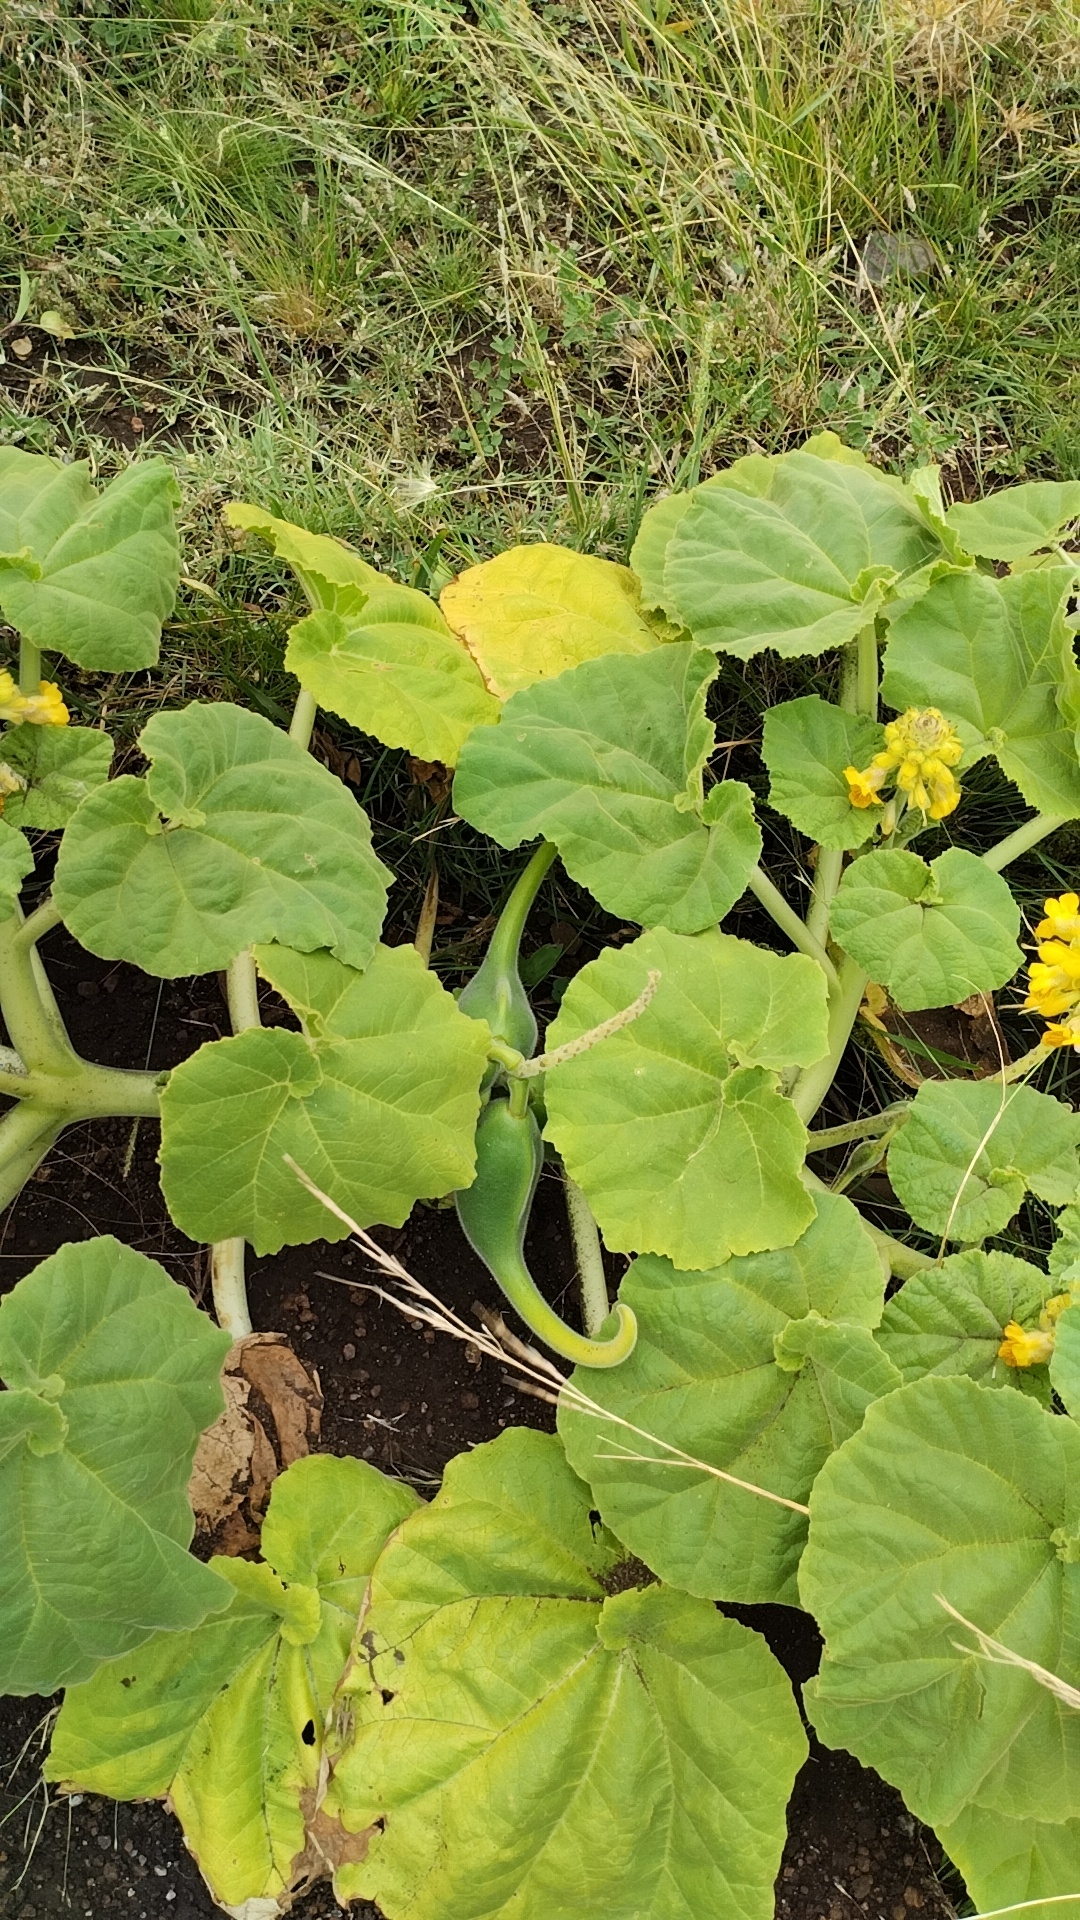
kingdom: Plantae
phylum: Tracheophyta
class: Magnoliopsida
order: Lamiales
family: Martyniaceae
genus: Ibicella
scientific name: Ibicella lutea
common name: Yellow unicorn-plant
